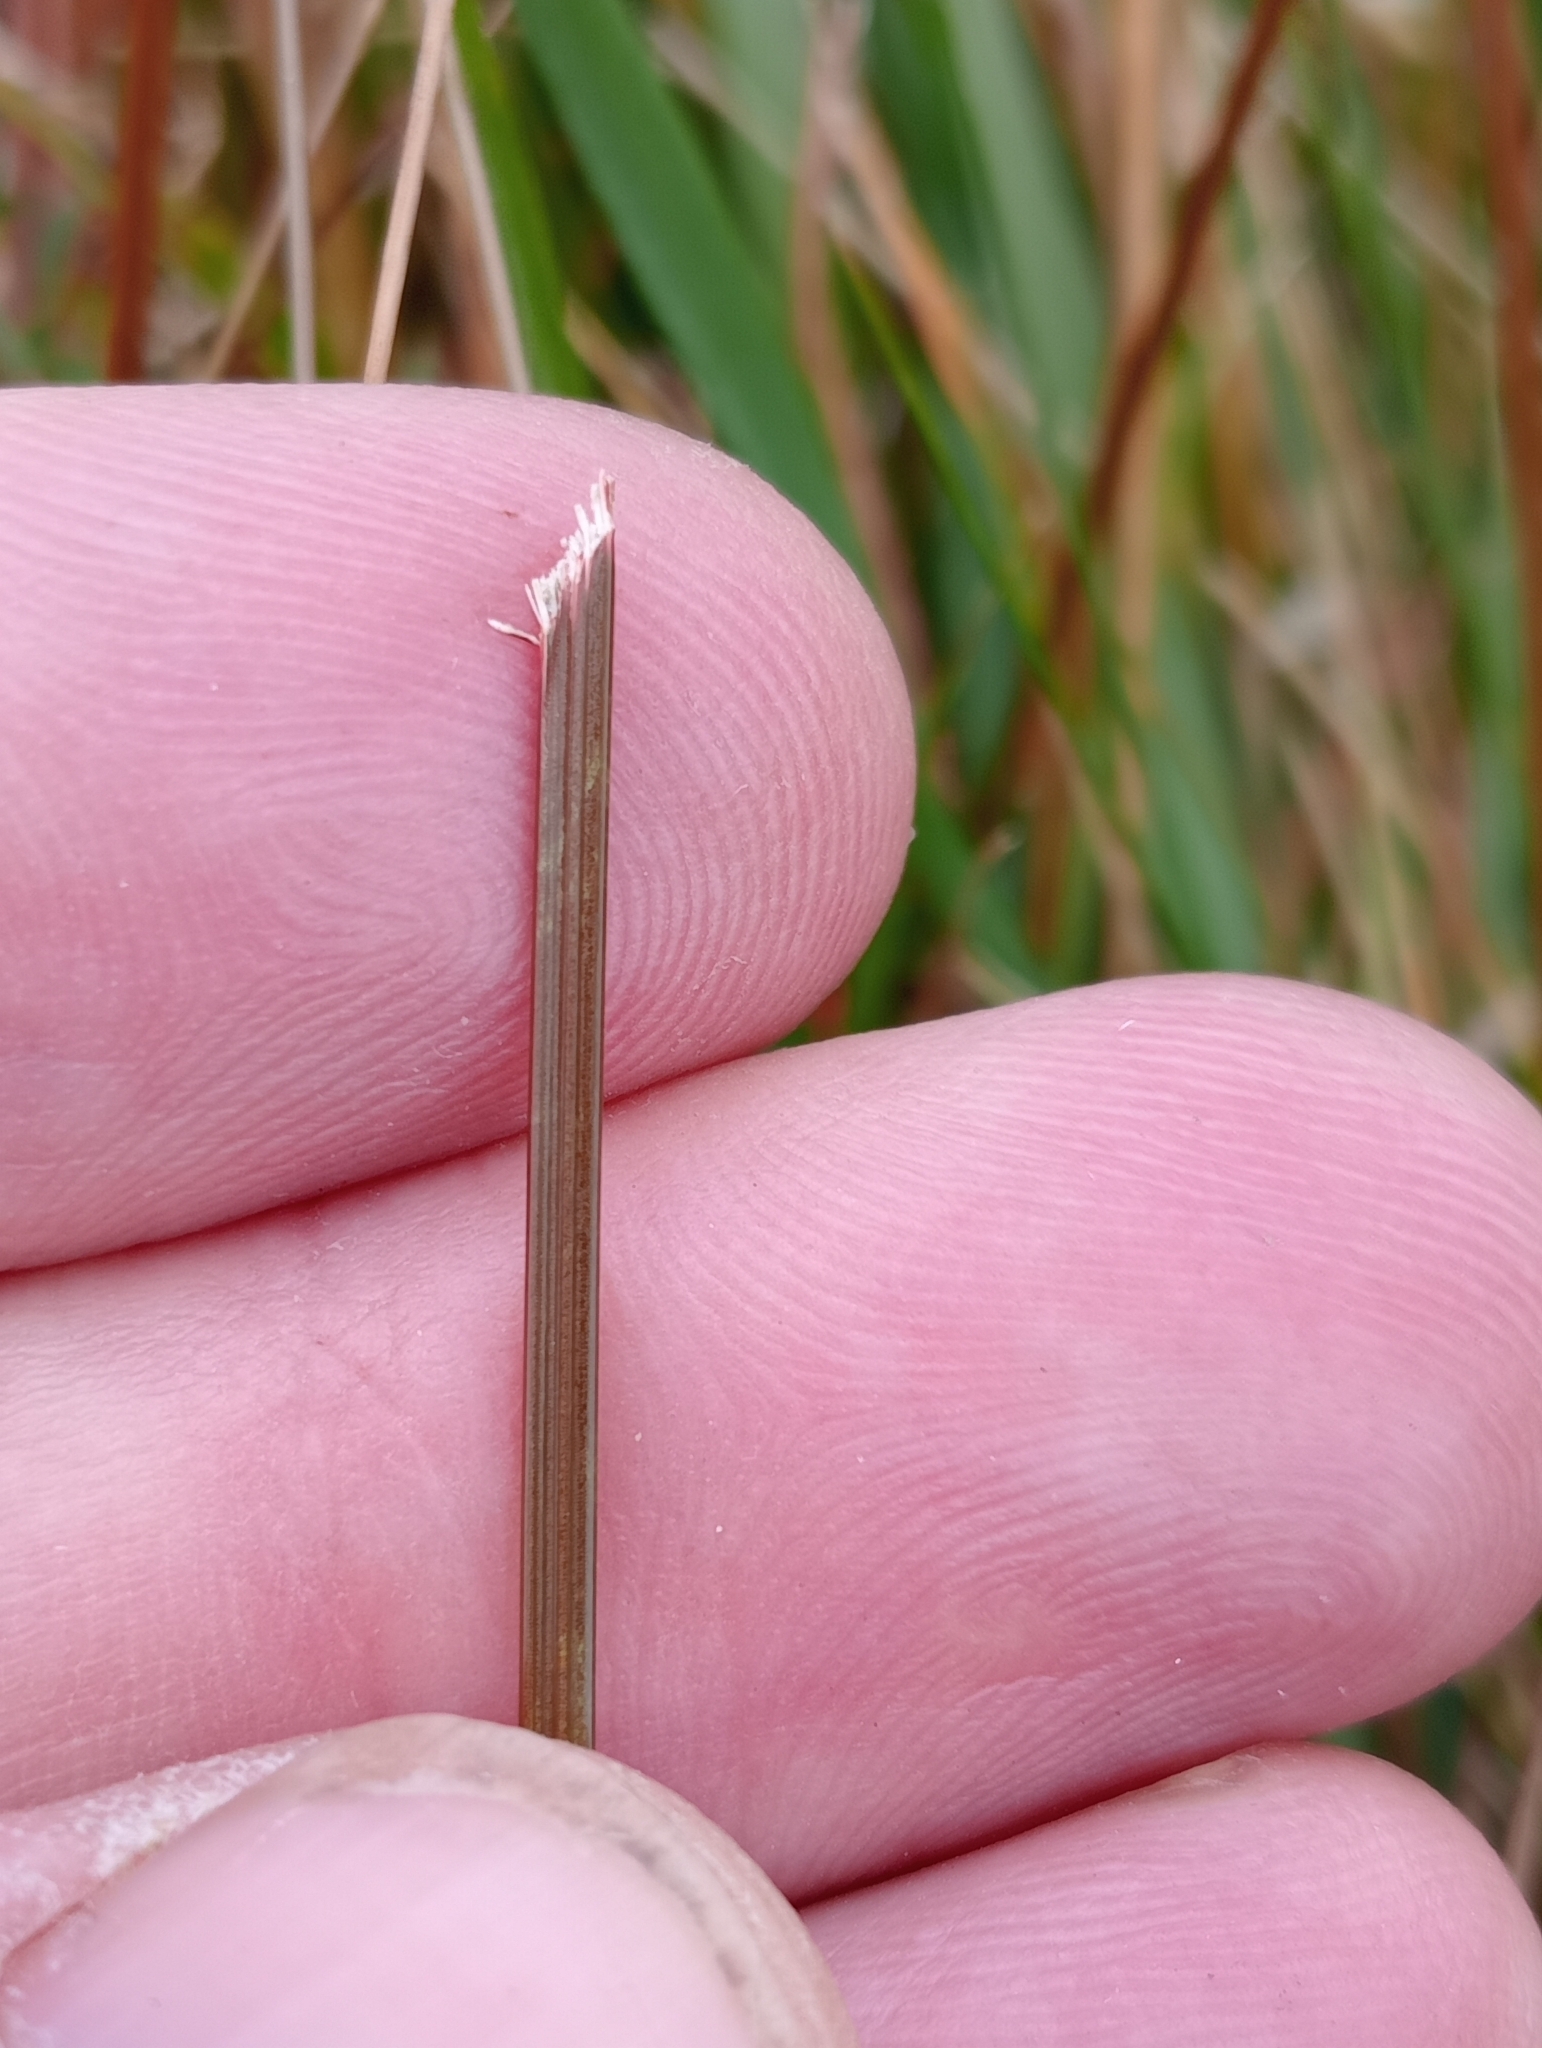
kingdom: Plantae
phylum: Tracheophyta
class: Liliopsida
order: Poales
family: Cyperaceae
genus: Carex
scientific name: Carex punicea
